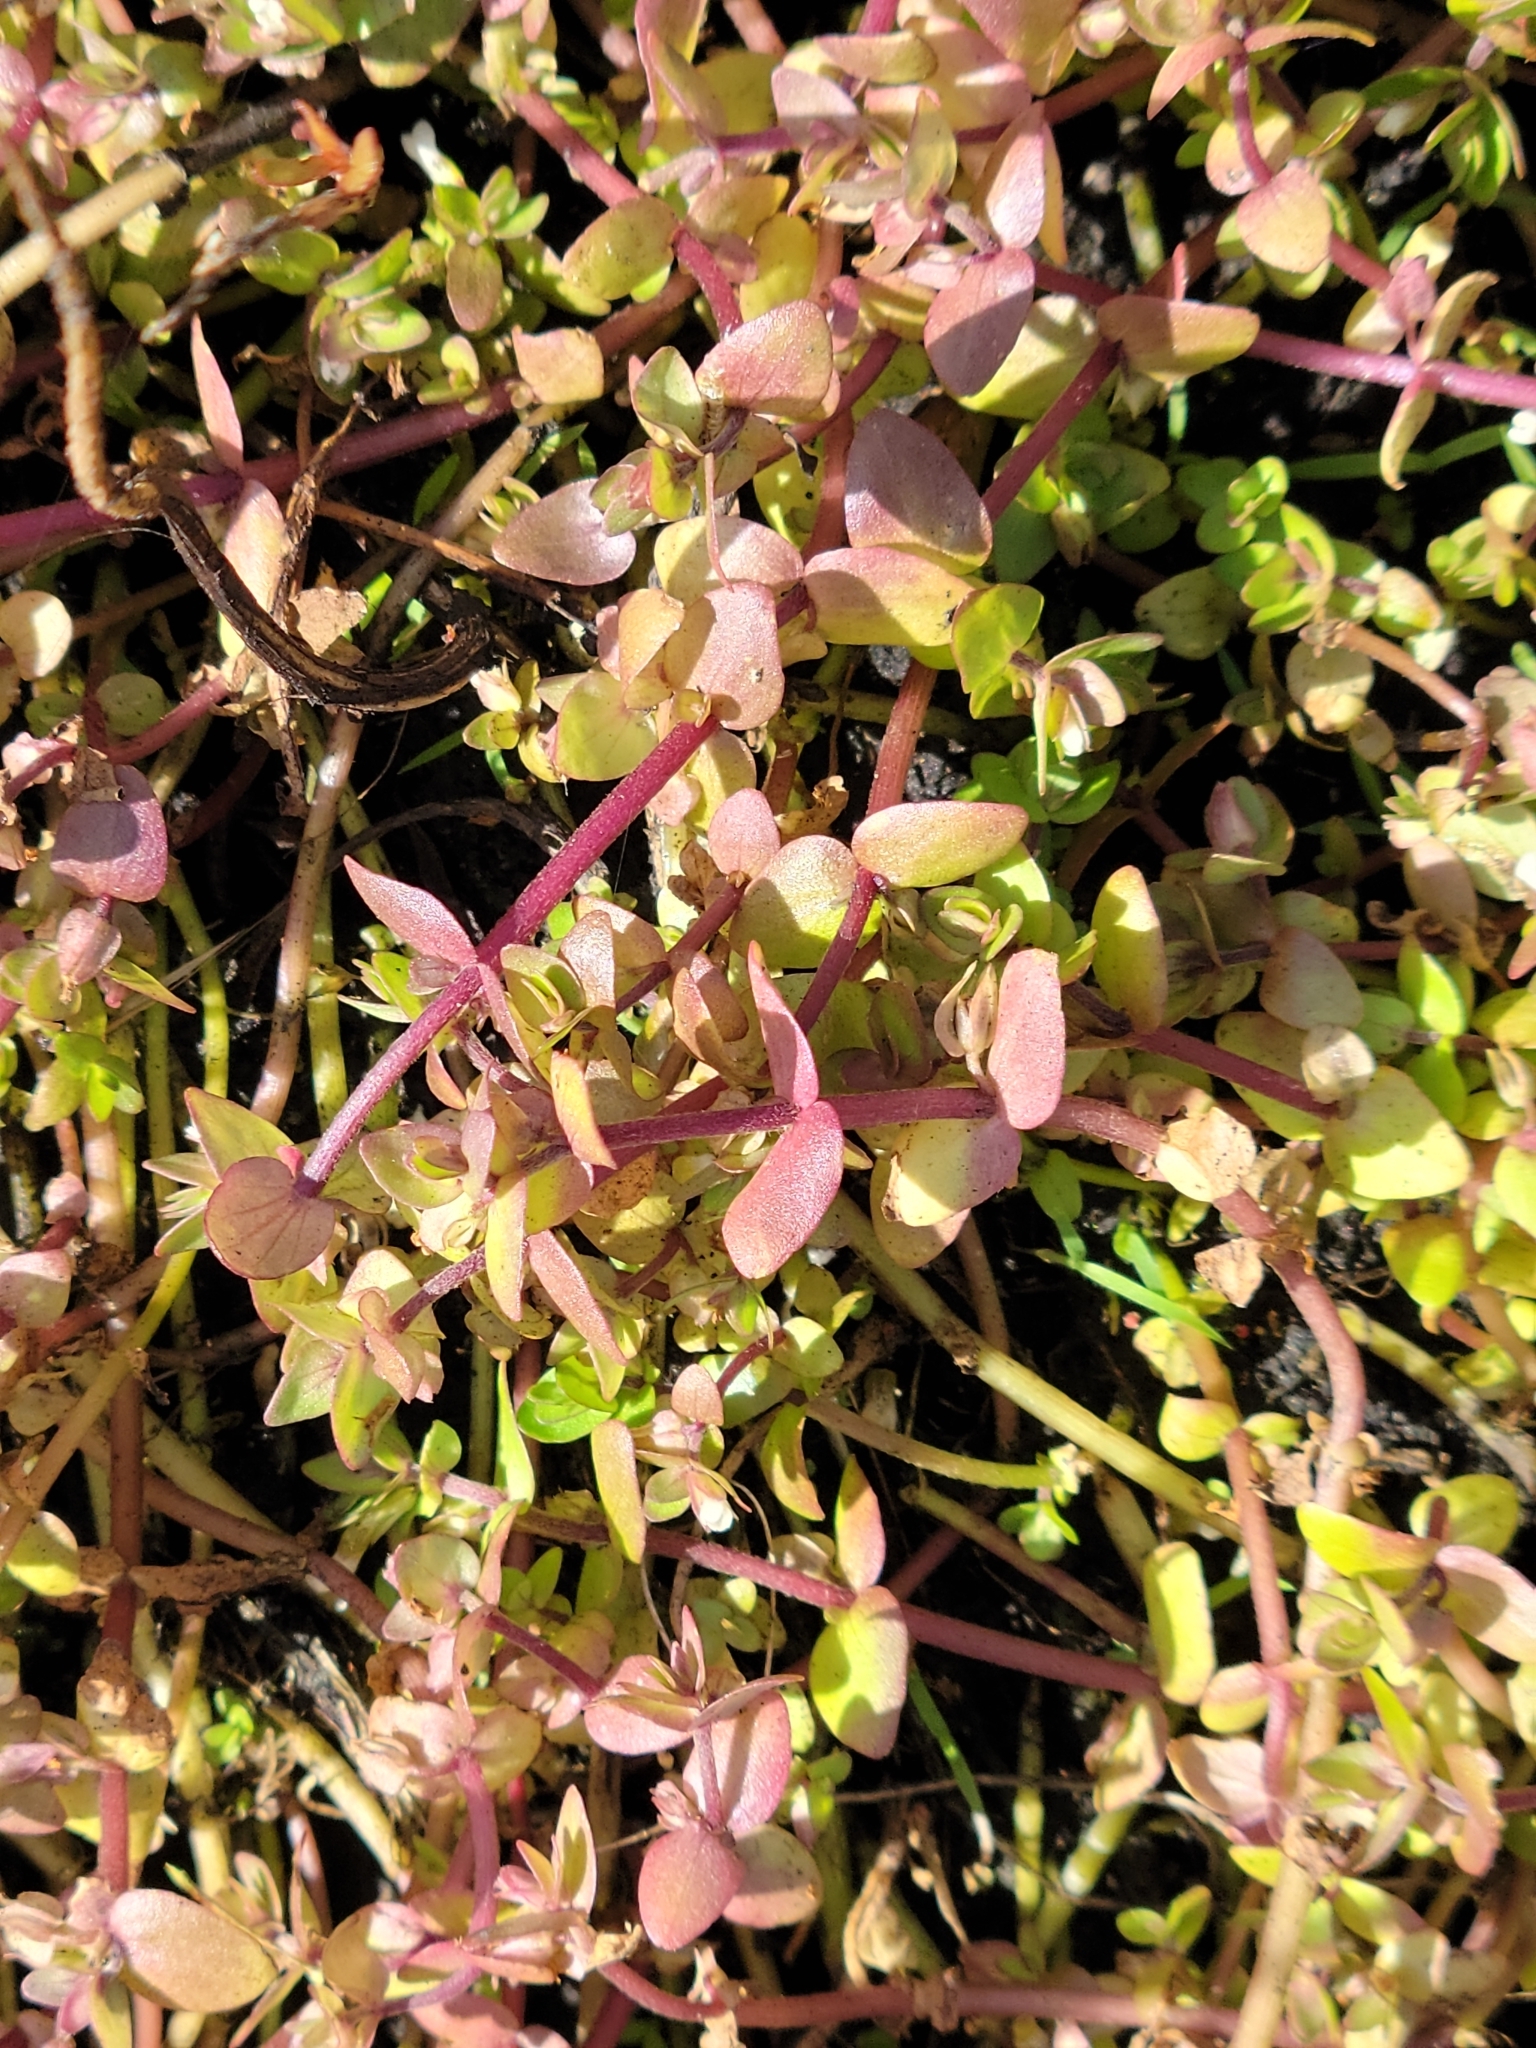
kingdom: Plantae
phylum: Tracheophyta
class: Magnoliopsida
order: Lamiales
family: Plantaginaceae
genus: Bacopa
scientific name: Bacopa innominata
